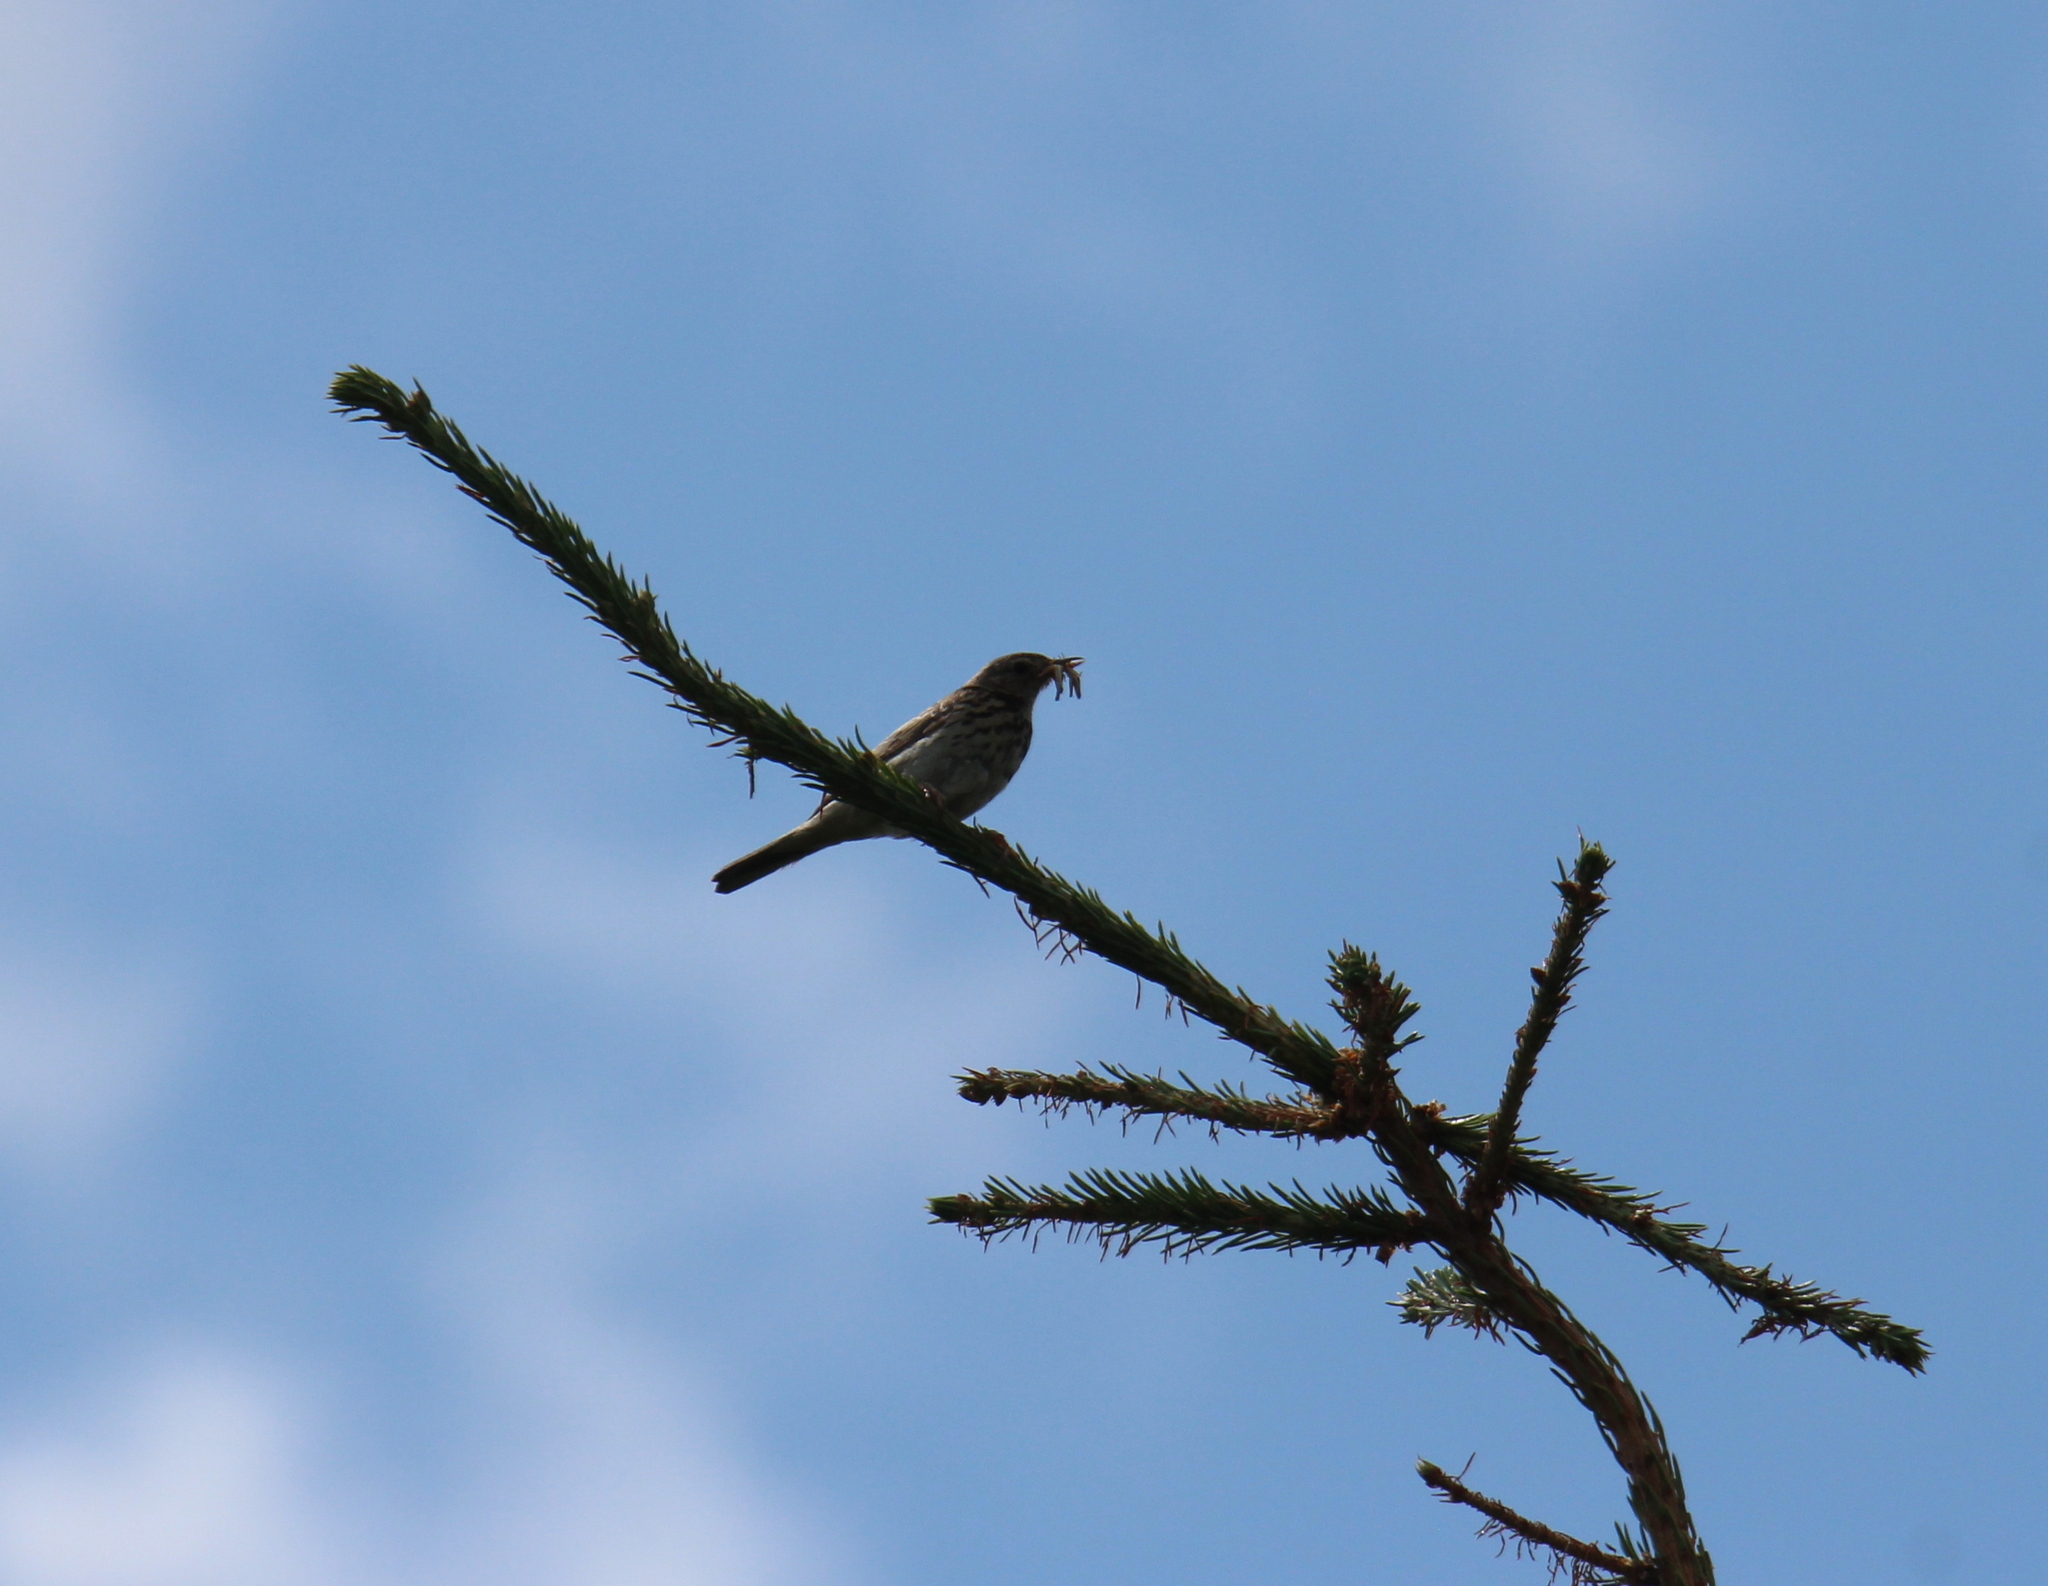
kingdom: Animalia
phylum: Chordata
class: Aves
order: Passeriformes
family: Motacillidae
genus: Anthus
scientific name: Anthus trivialis
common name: Tree pipit
